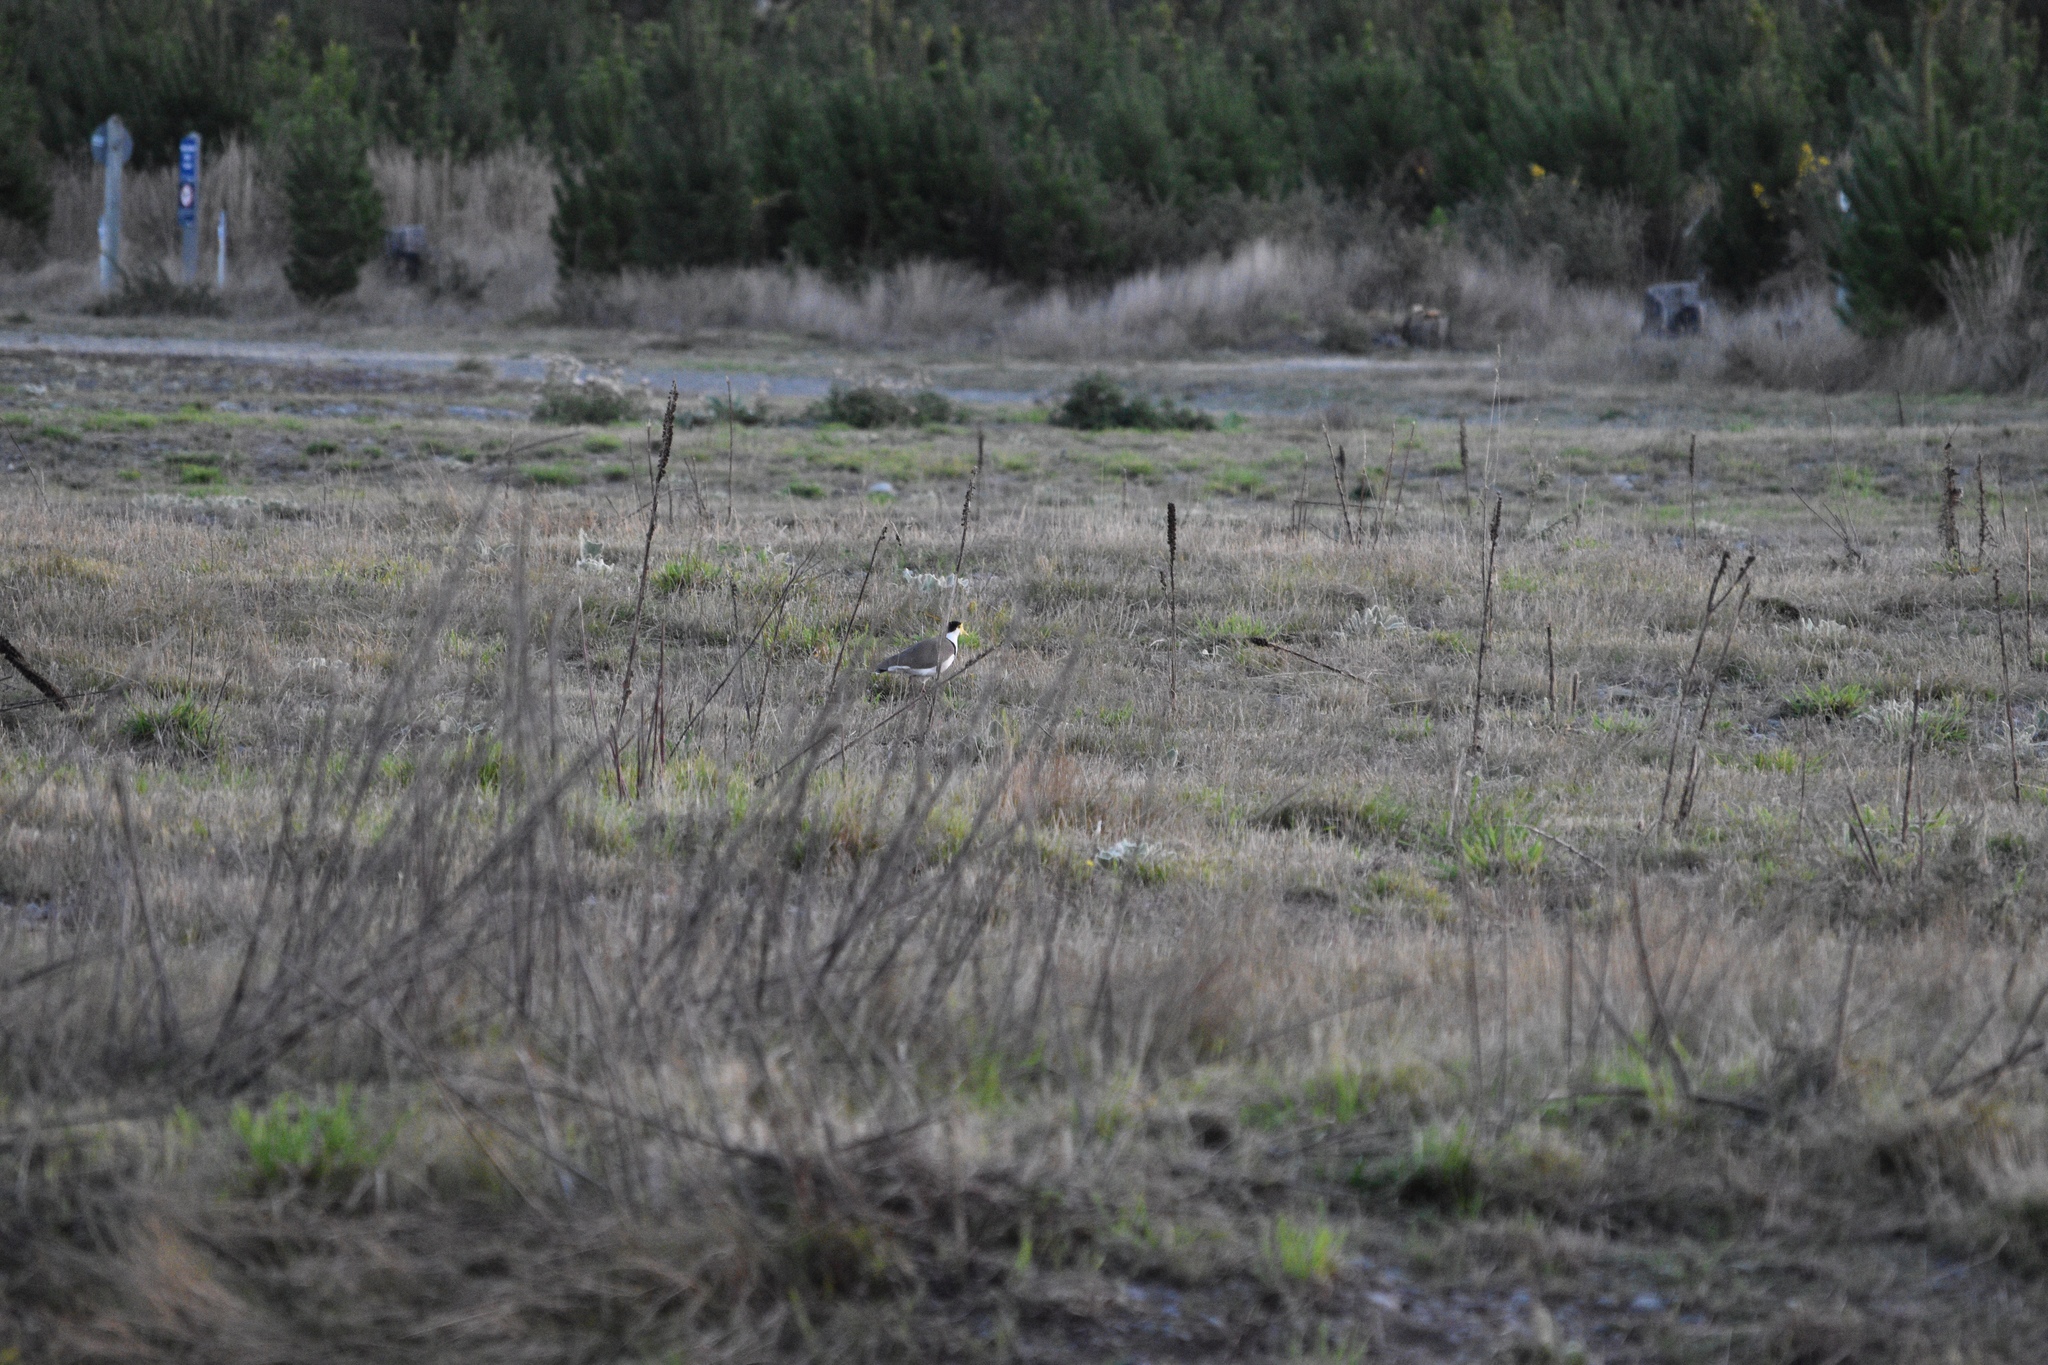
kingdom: Animalia
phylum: Chordata
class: Aves
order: Charadriiformes
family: Charadriidae
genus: Vanellus
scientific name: Vanellus miles
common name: Masked lapwing
